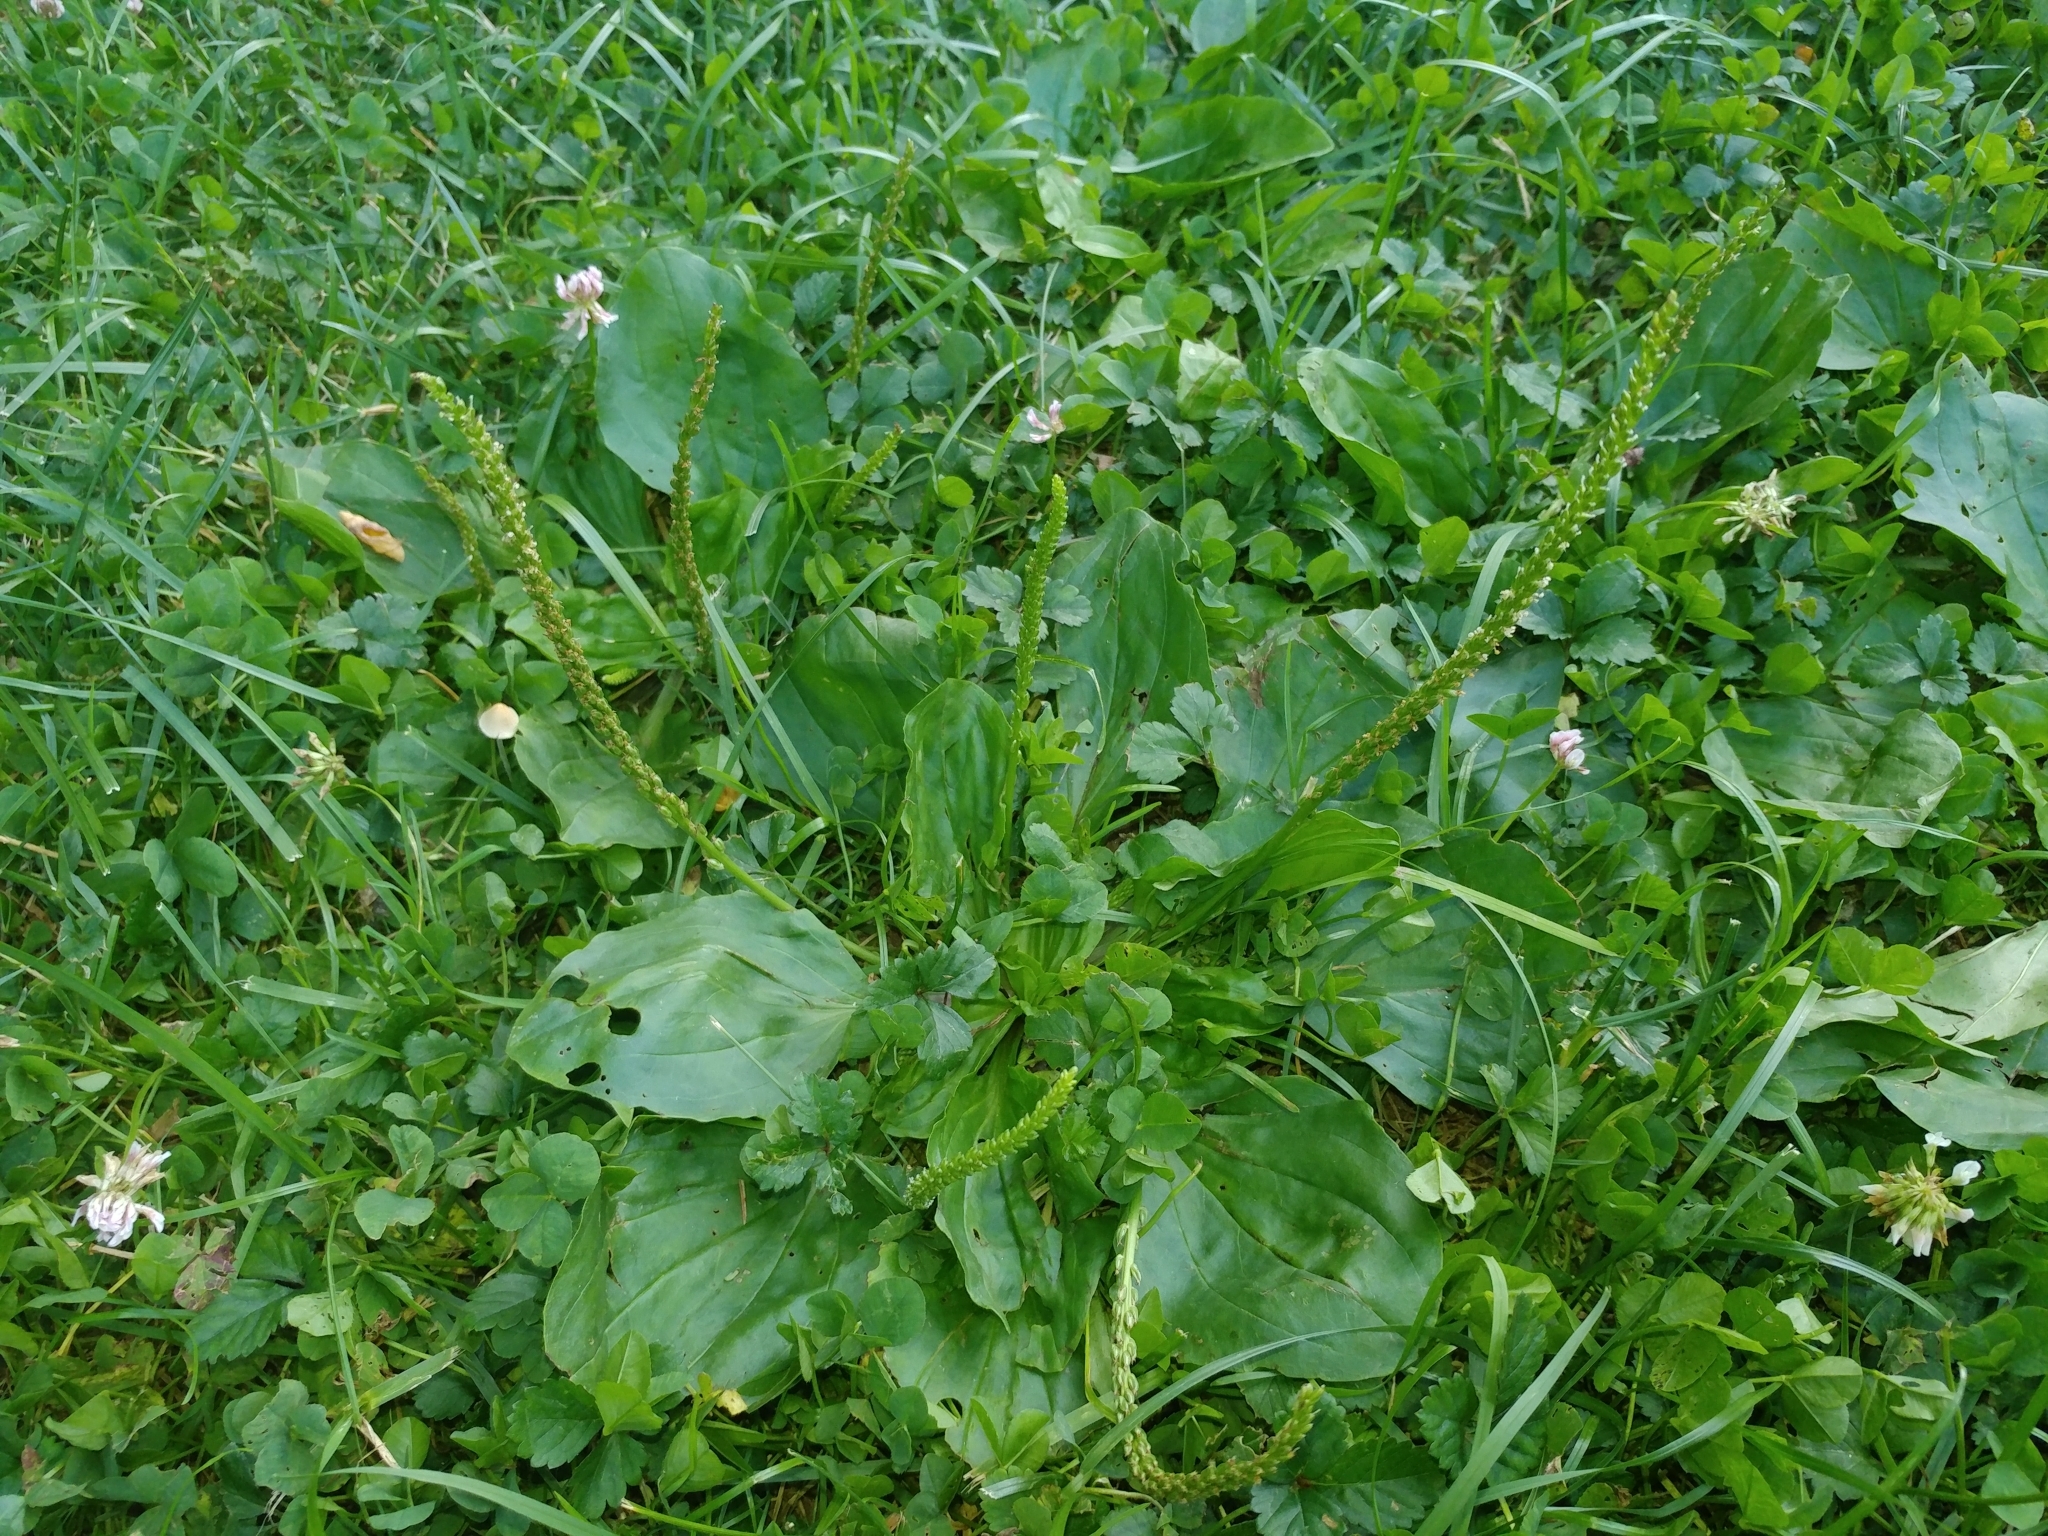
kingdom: Plantae
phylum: Tracheophyta
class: Magnoliopsida
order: Lamiales
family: Plantaginaceae
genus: Plantago
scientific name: Plantago major
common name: Common plantain
